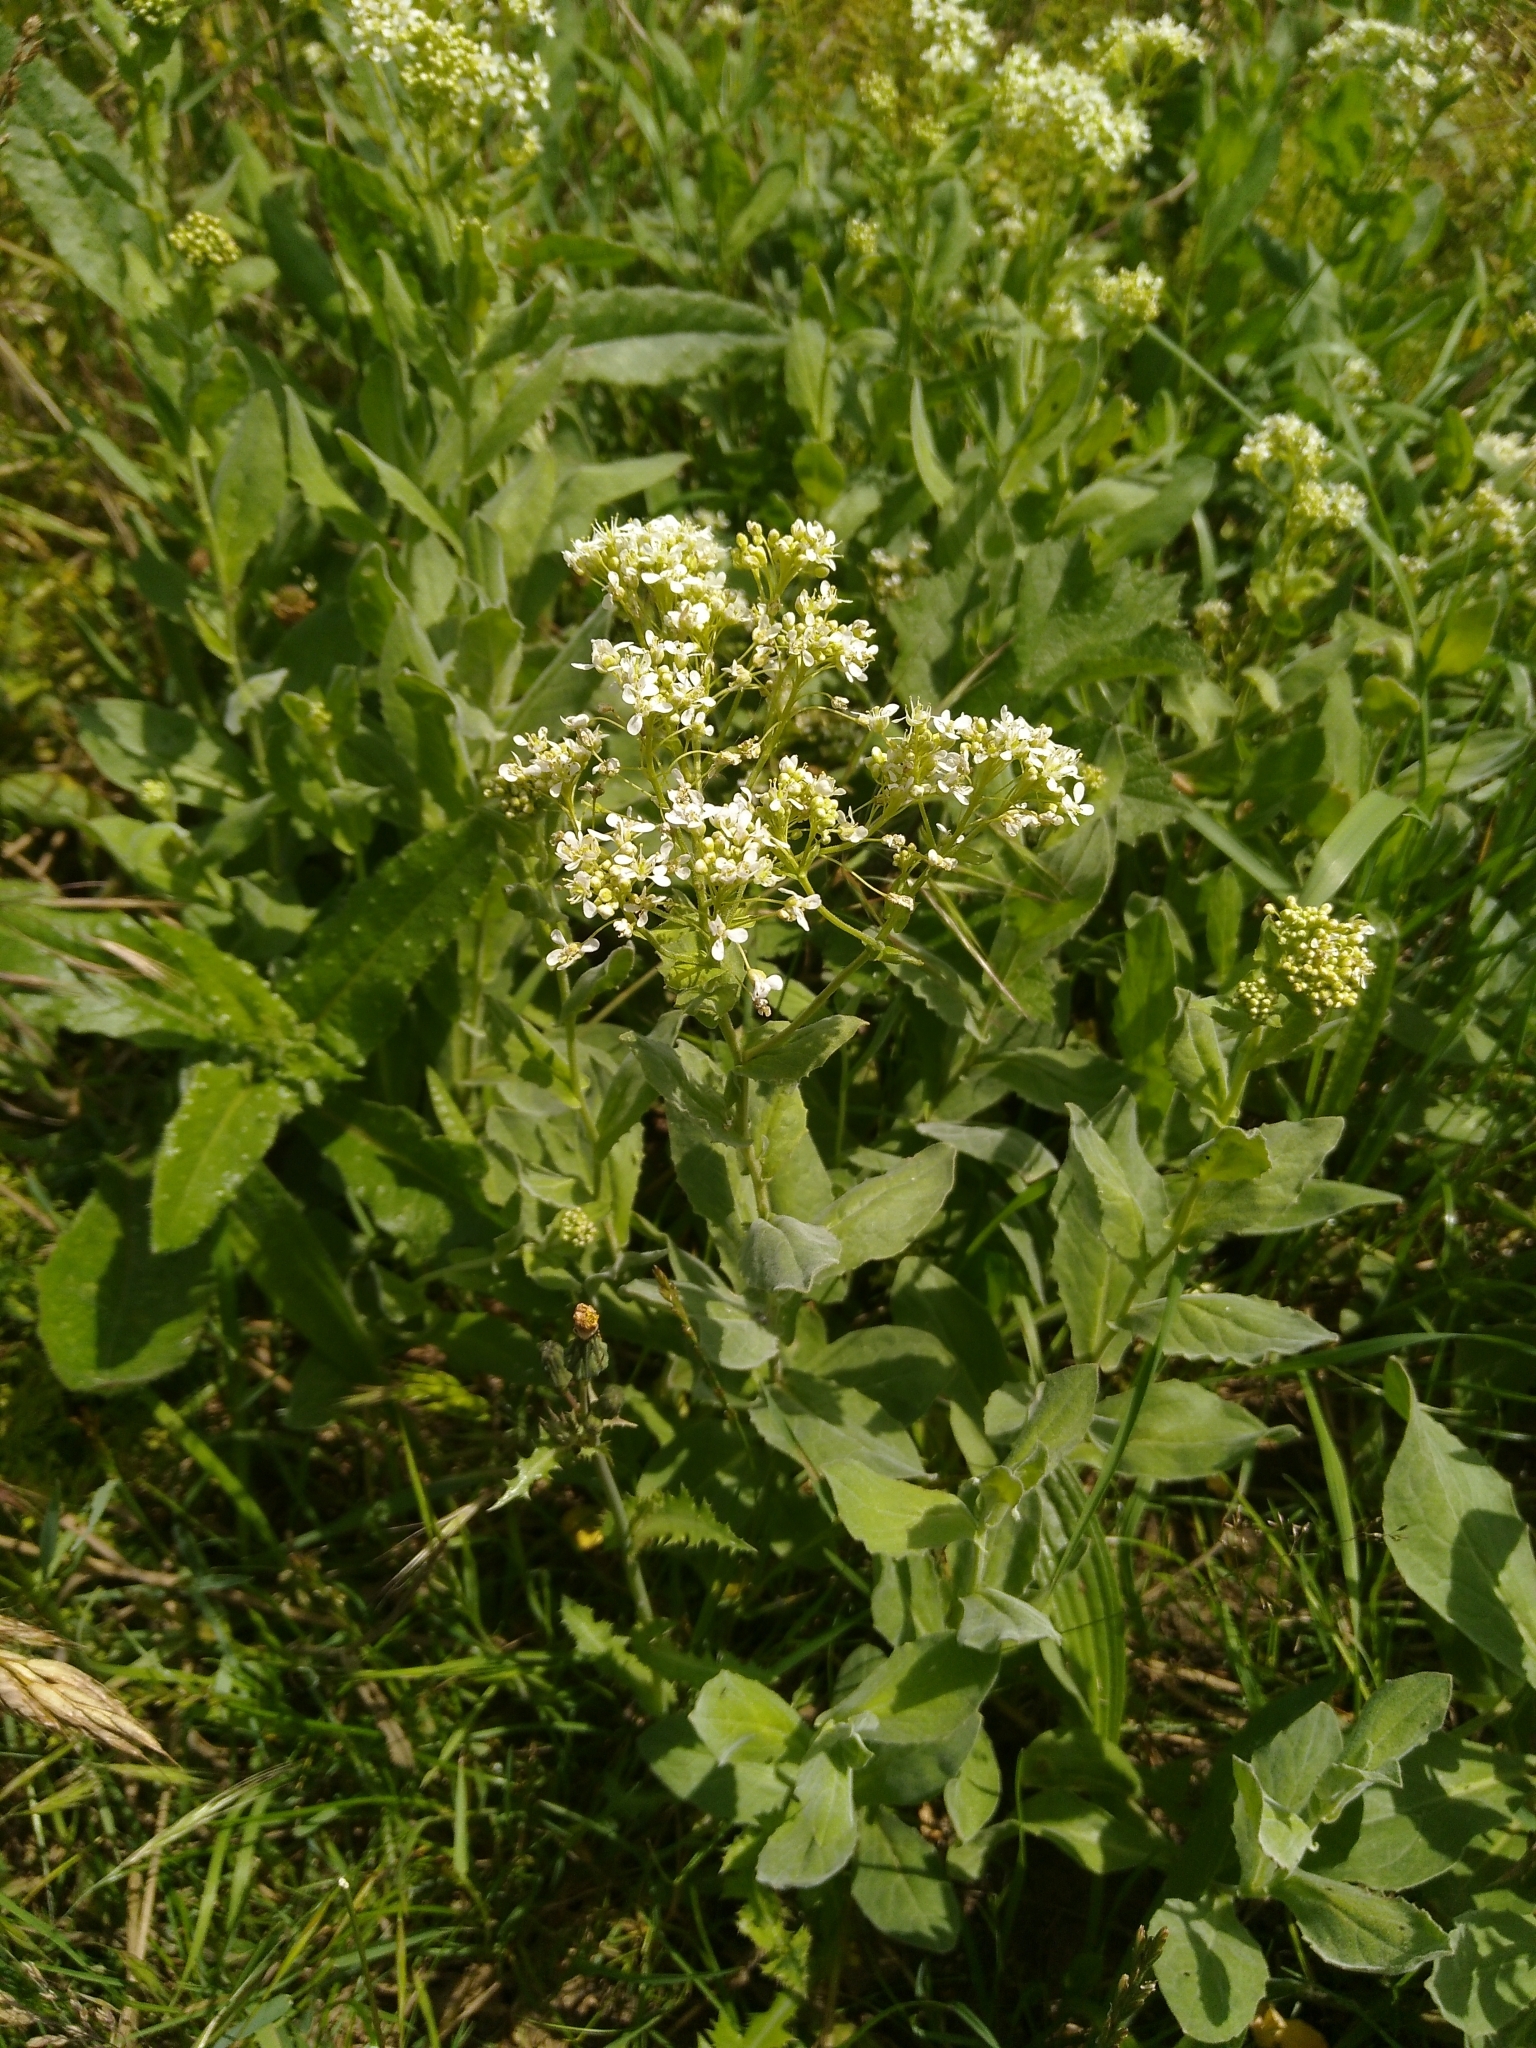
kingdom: Plantae
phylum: Tracheophyta
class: Magnoliopsida
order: Brassicales
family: Brassicaceae
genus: Lepidium
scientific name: Lepidium draba
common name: Hoary cress
